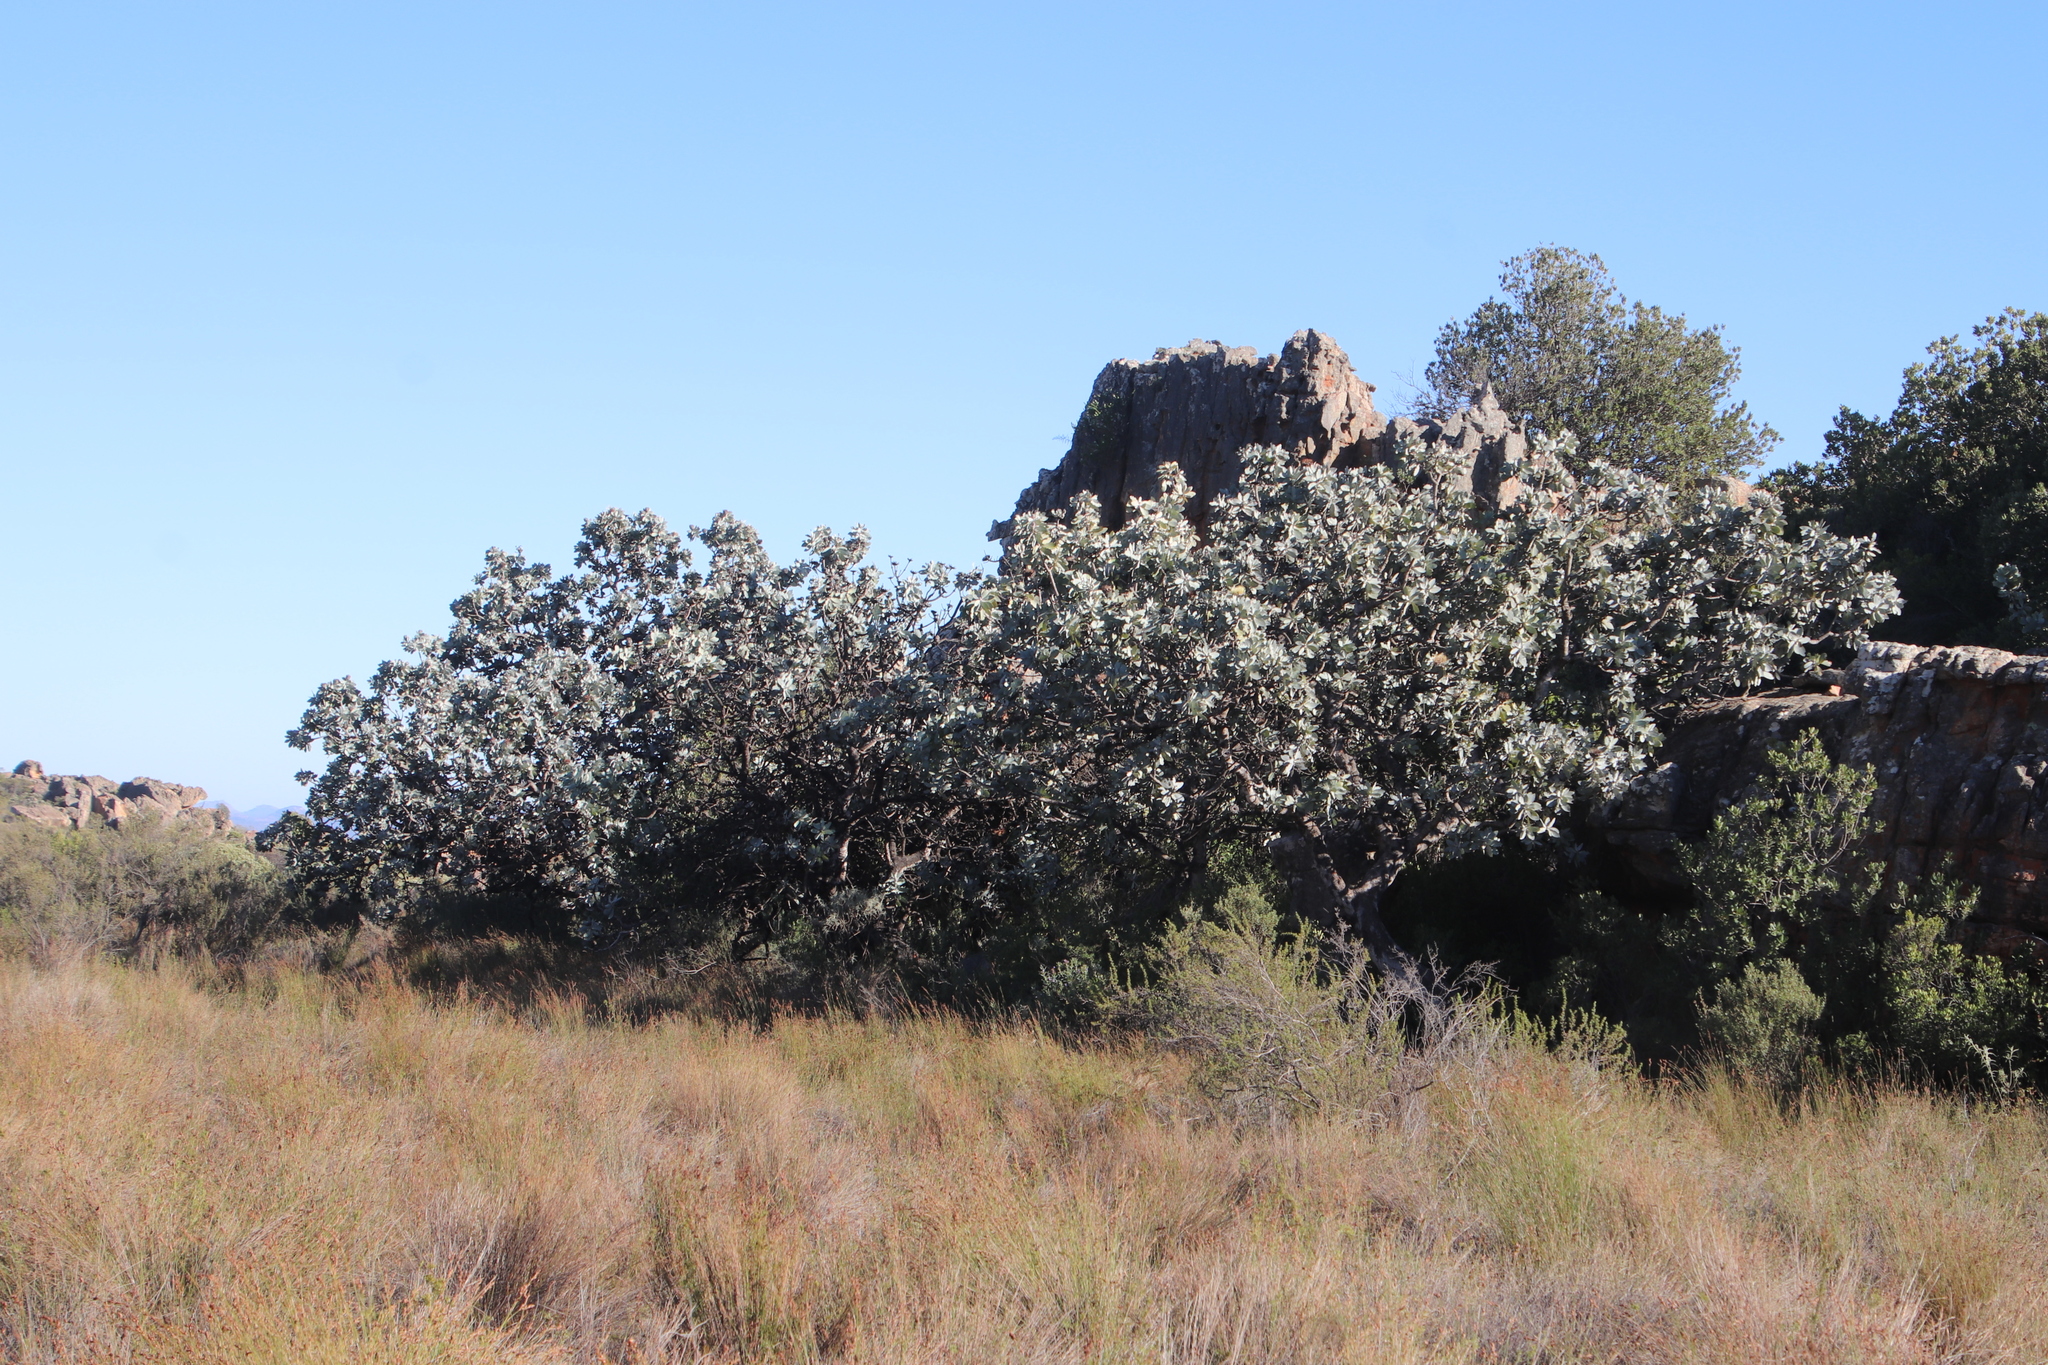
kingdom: Plantae
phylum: Tracheophyta
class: Magnoliopsida
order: Proteales
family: Proteaceae
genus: Protea
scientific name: Protea nitida
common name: Tree protea
